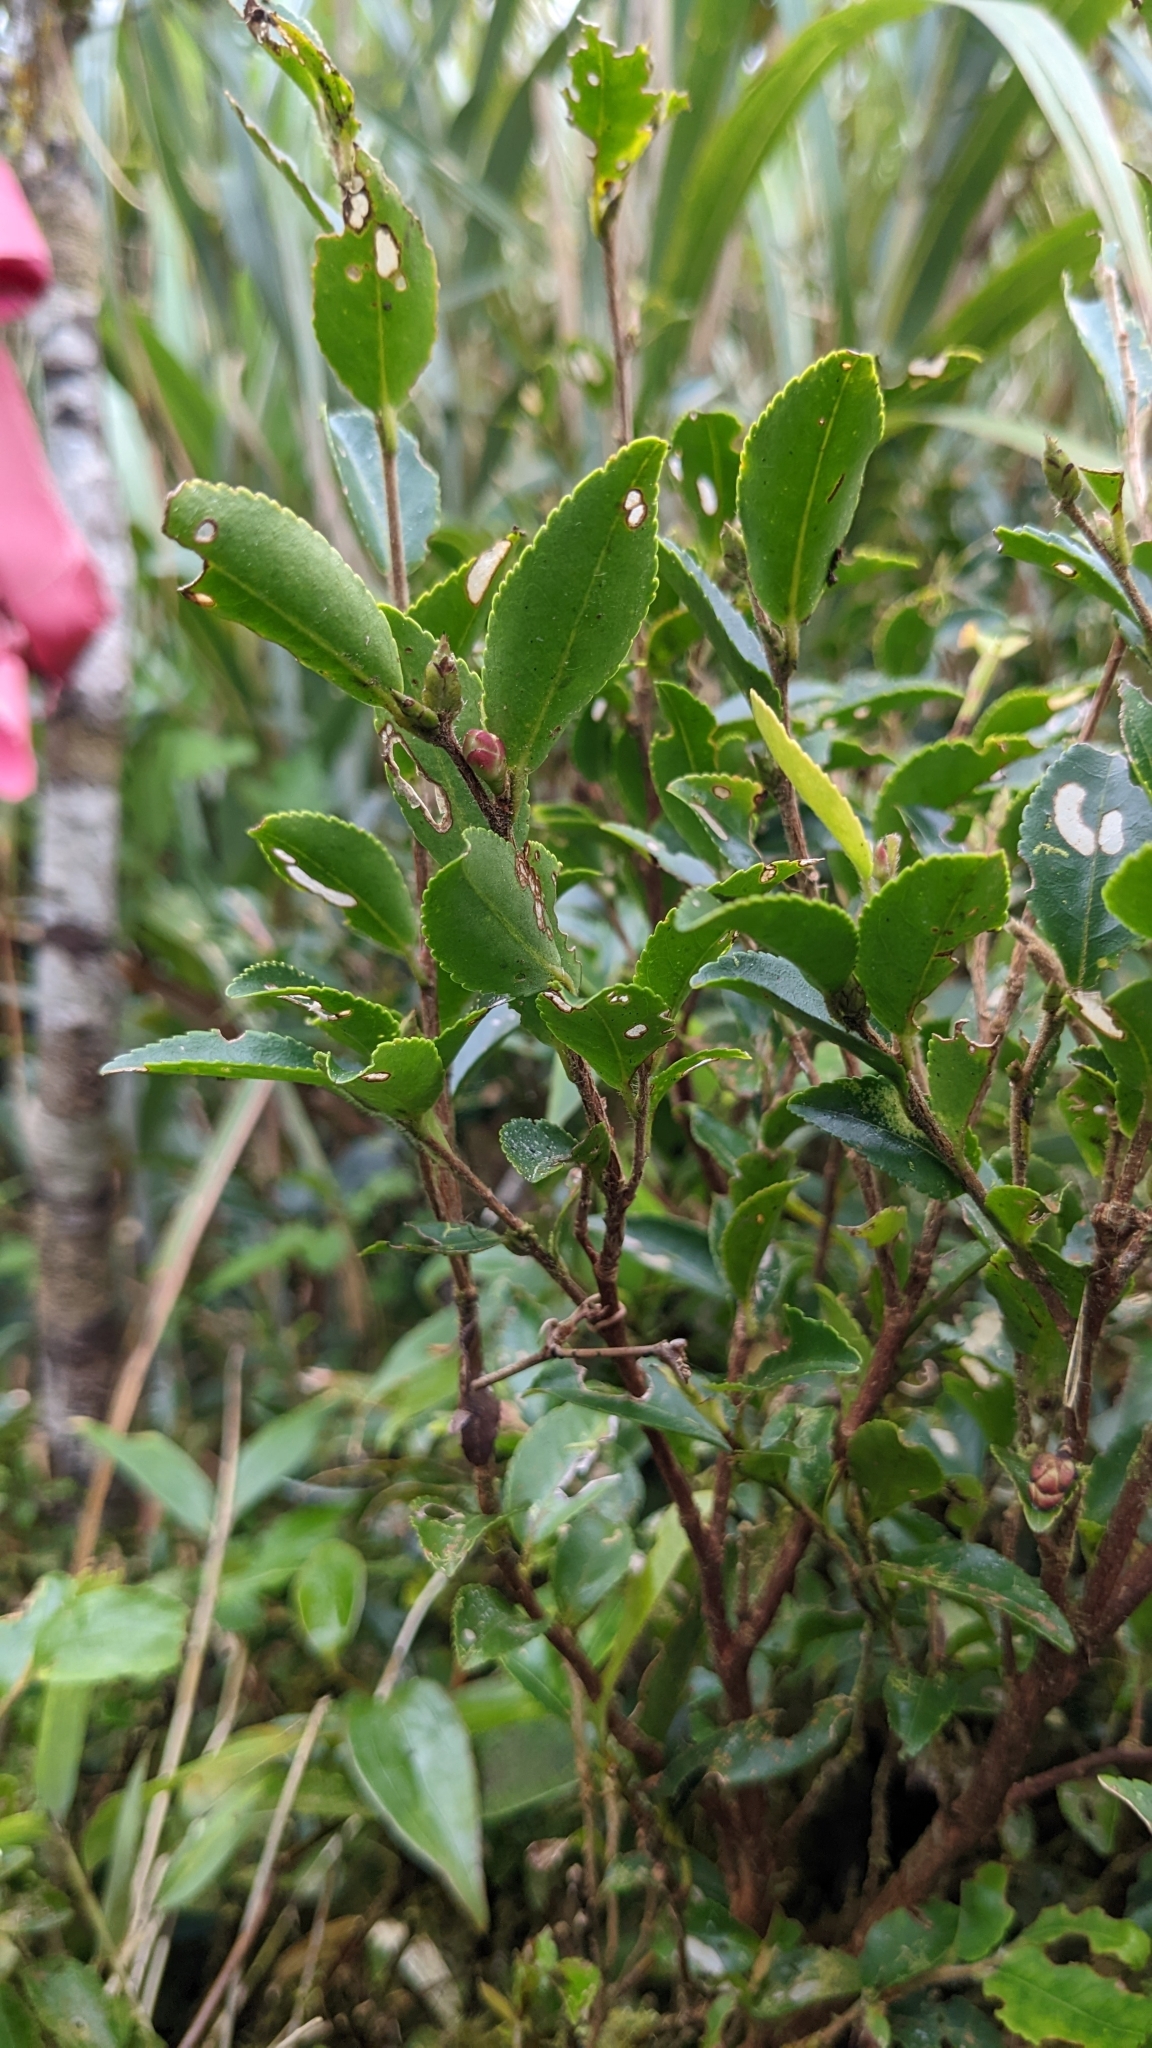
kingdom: Plantae
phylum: Tracheophyta
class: Magnoliopsida
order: Ericales
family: Theaceae
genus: Camellia
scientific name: Camellia trichoclada
